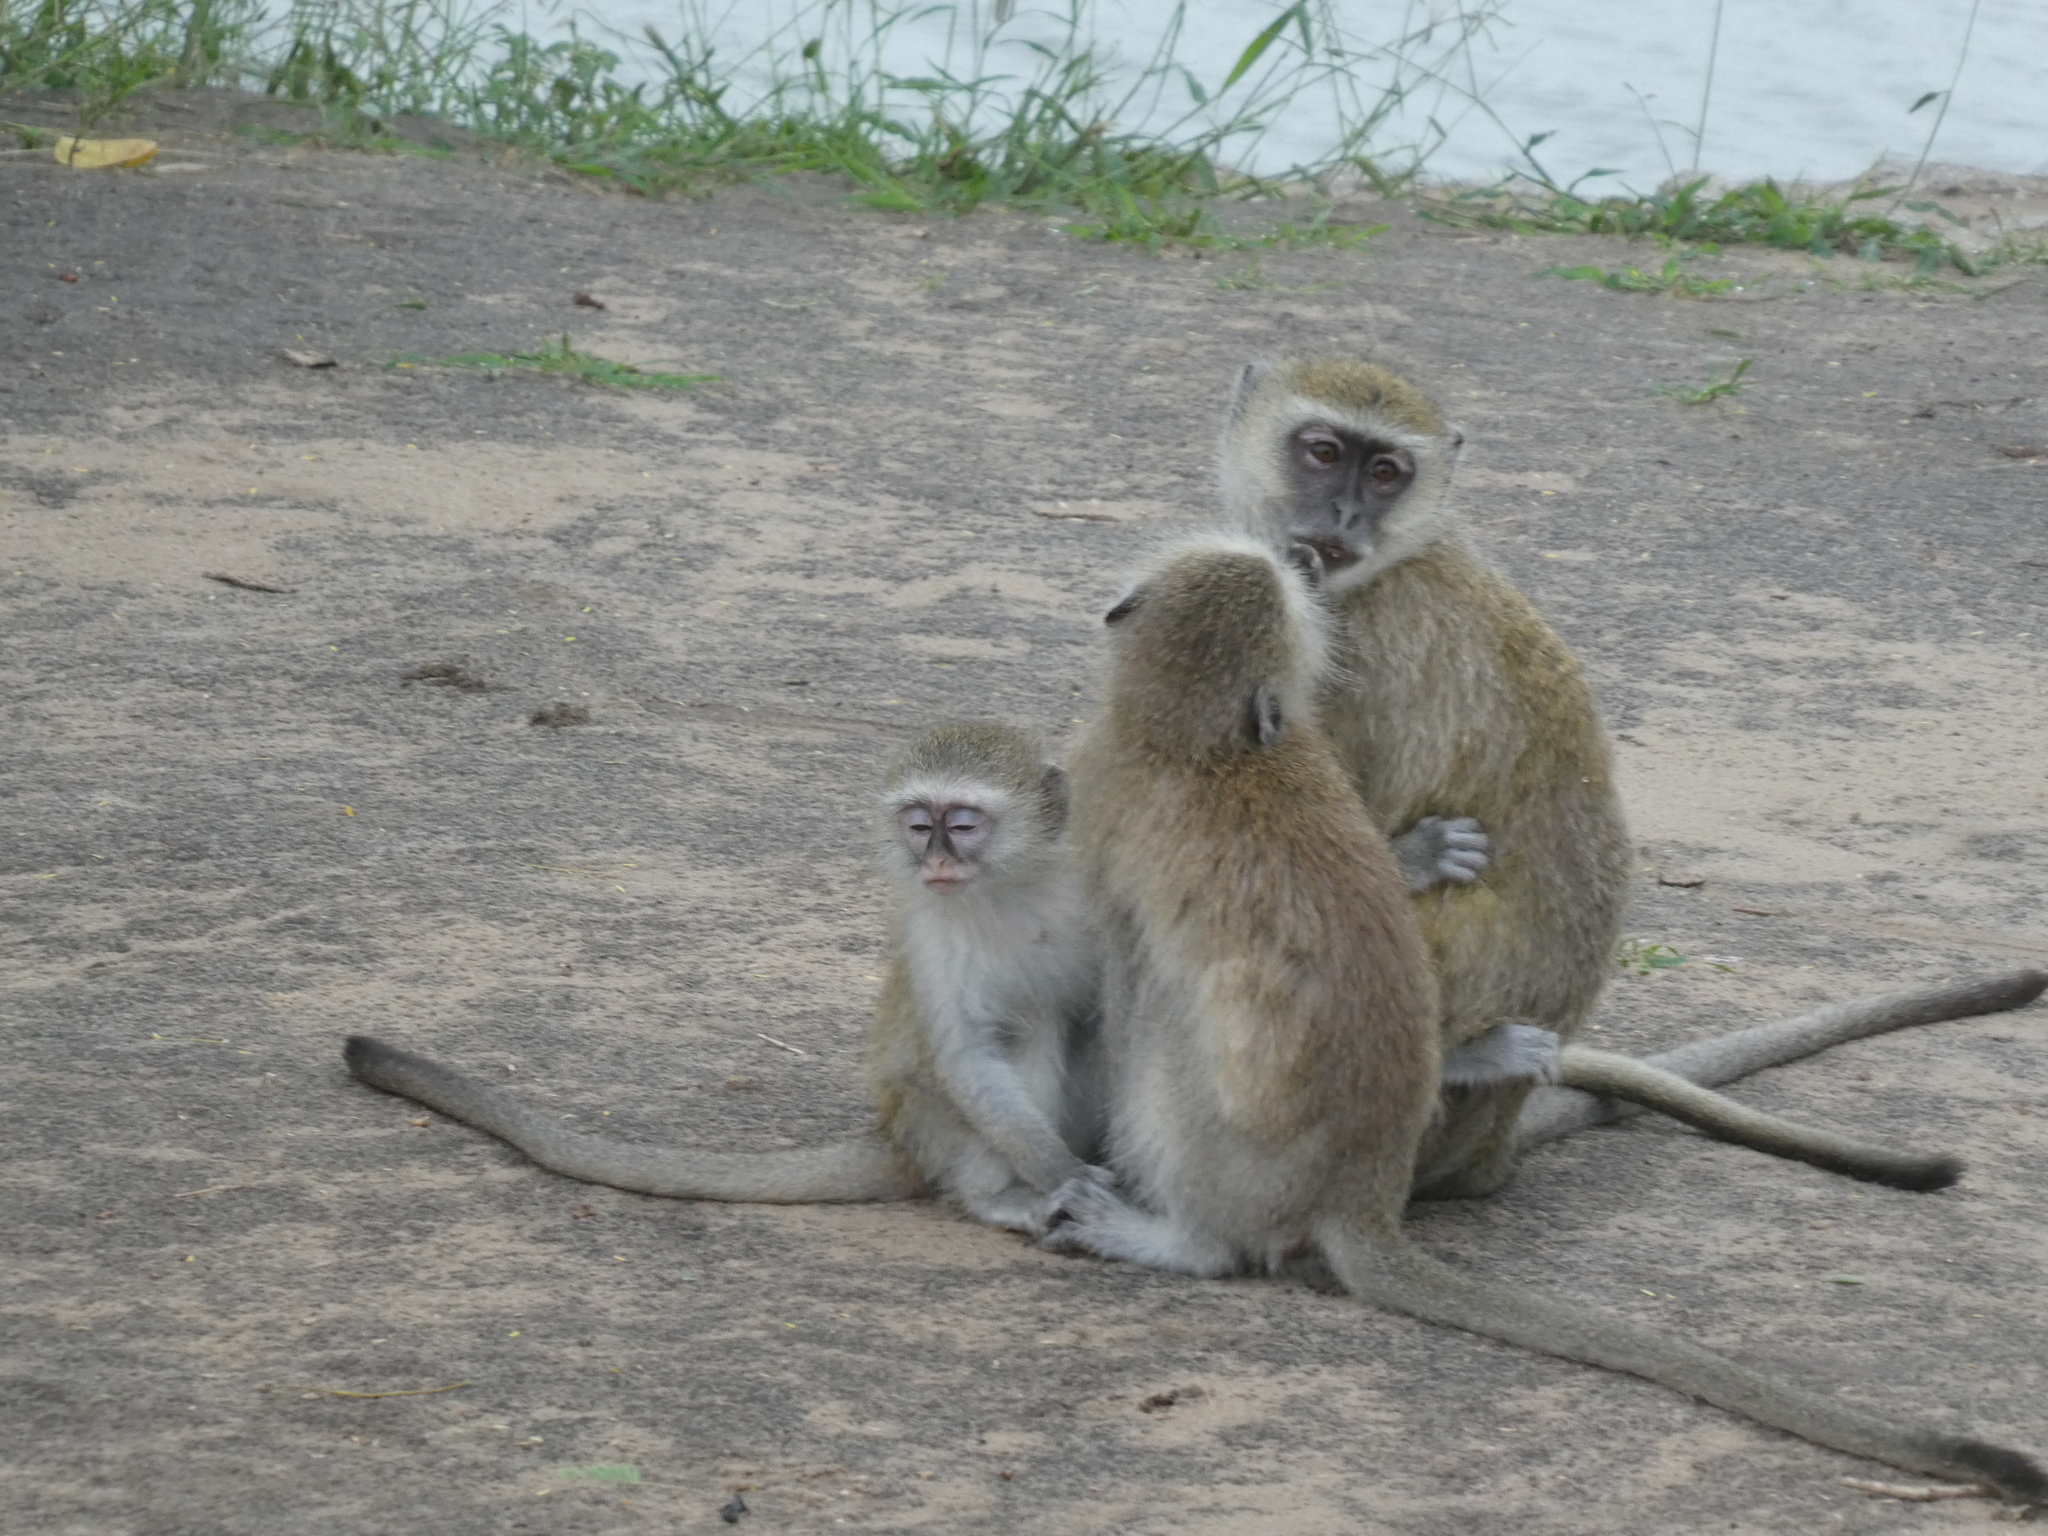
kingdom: Animalia
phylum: Chordata
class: Mammalia
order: Primates
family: Cercopithecidae
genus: Chlorocebus
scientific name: Chlorocebus pygerythrus
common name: Vervet monkey
